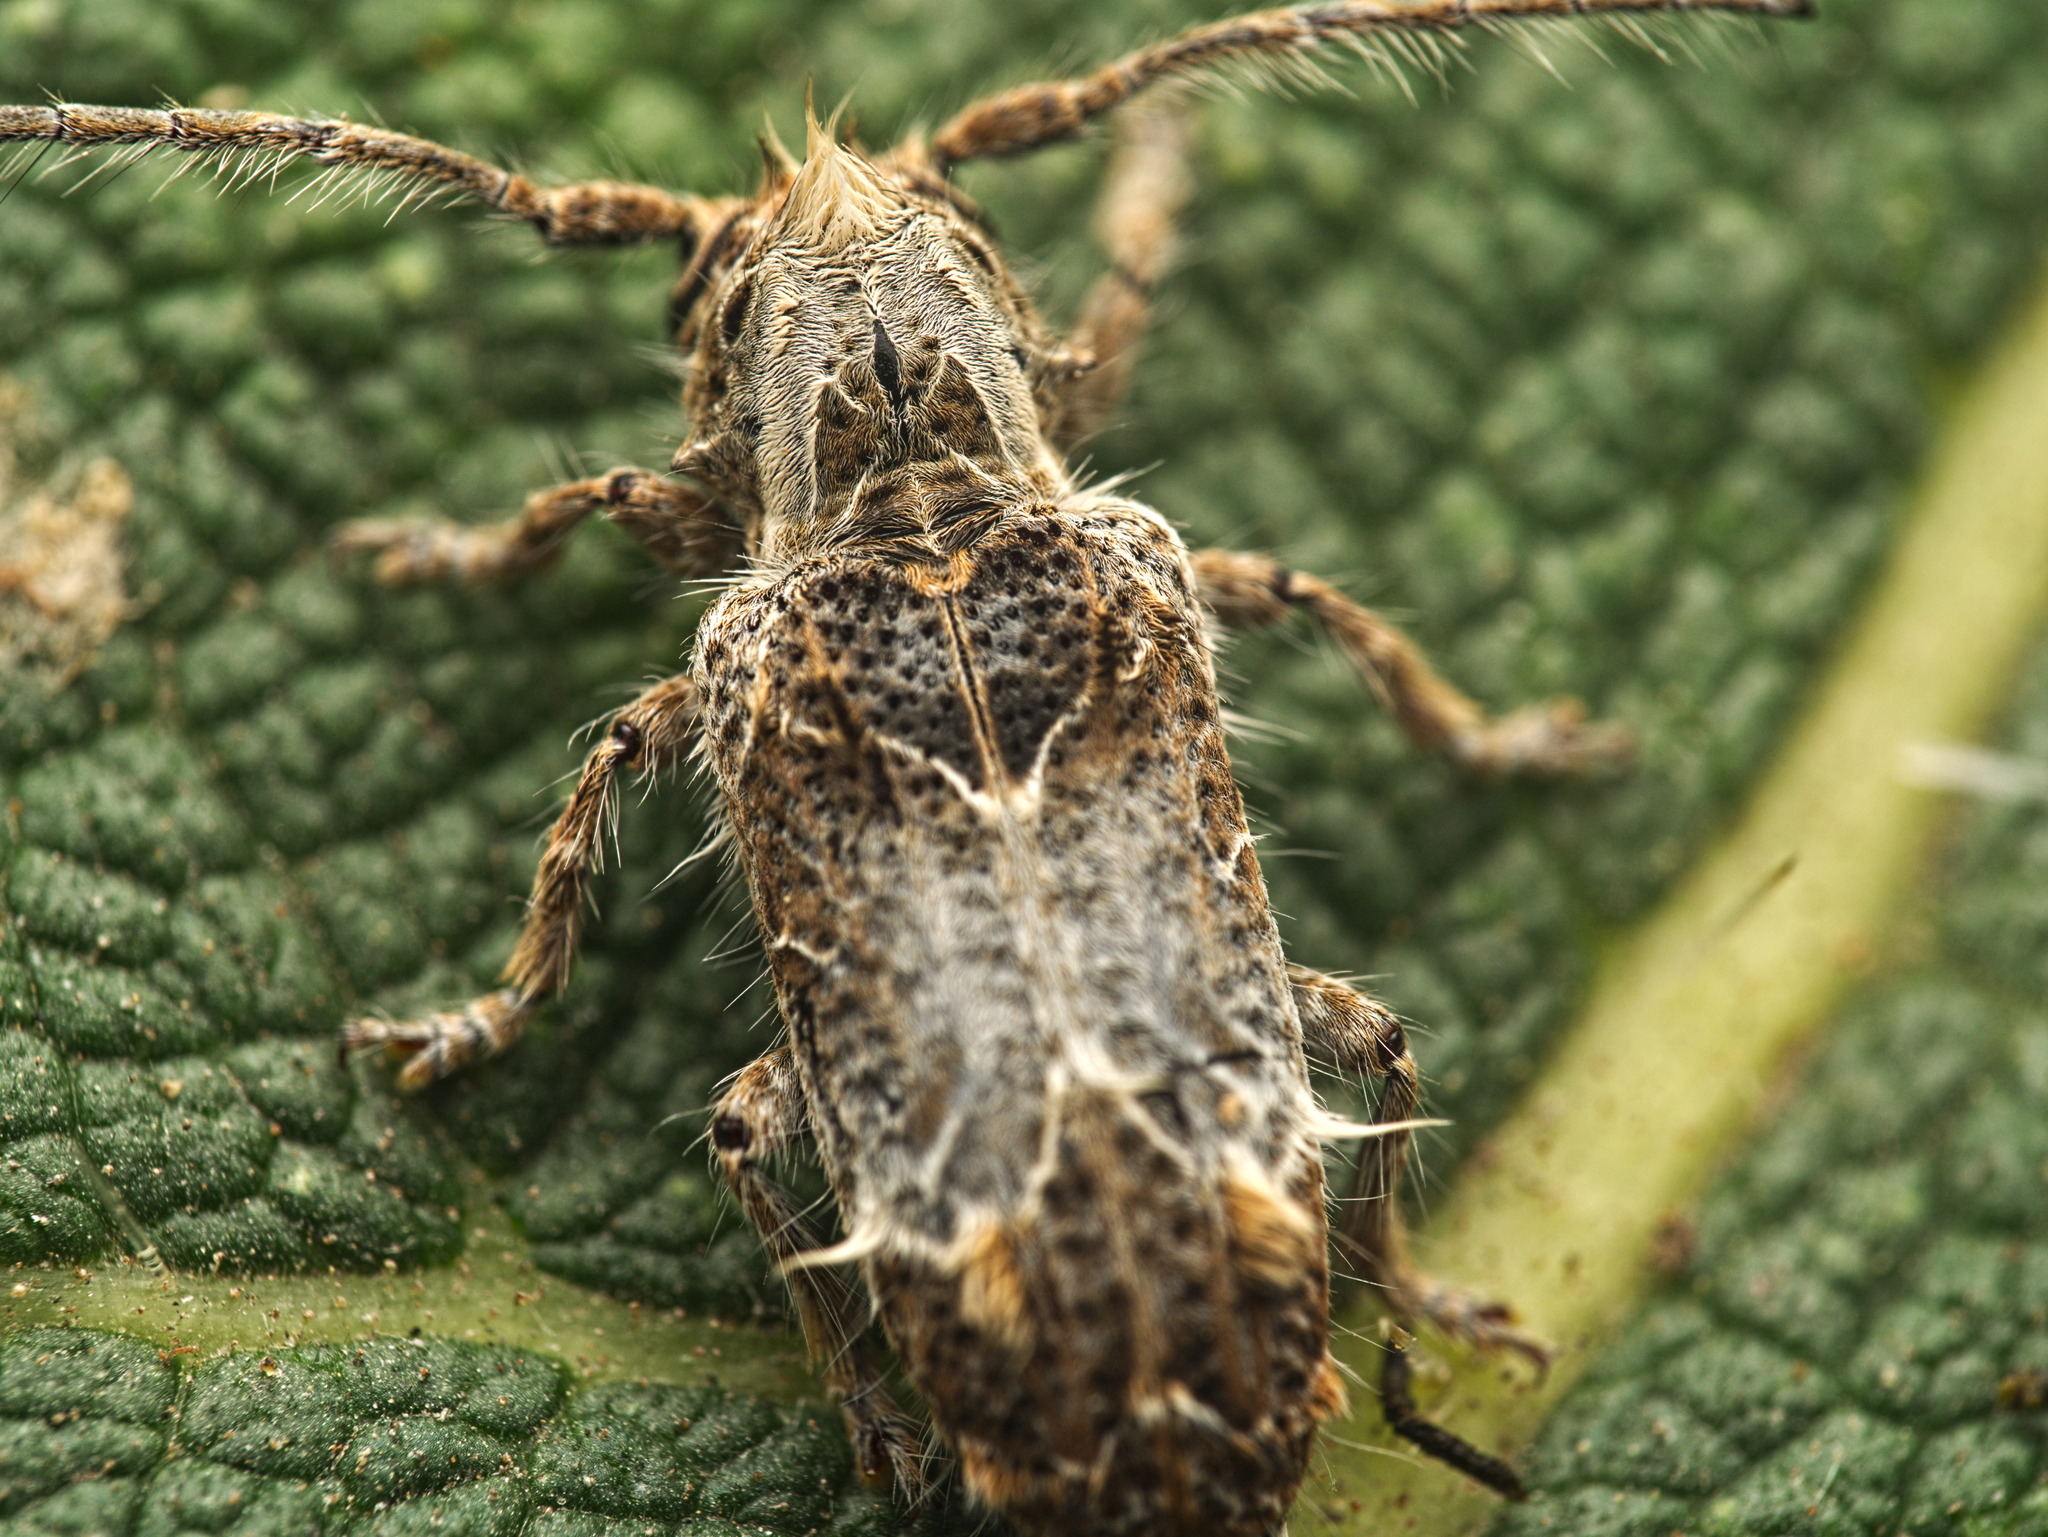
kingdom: Animalia
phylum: Arthropoda
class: Insecta
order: Coleoptera
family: Cerambycidae
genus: Desmiphora
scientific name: Desmiphora hirticollis
